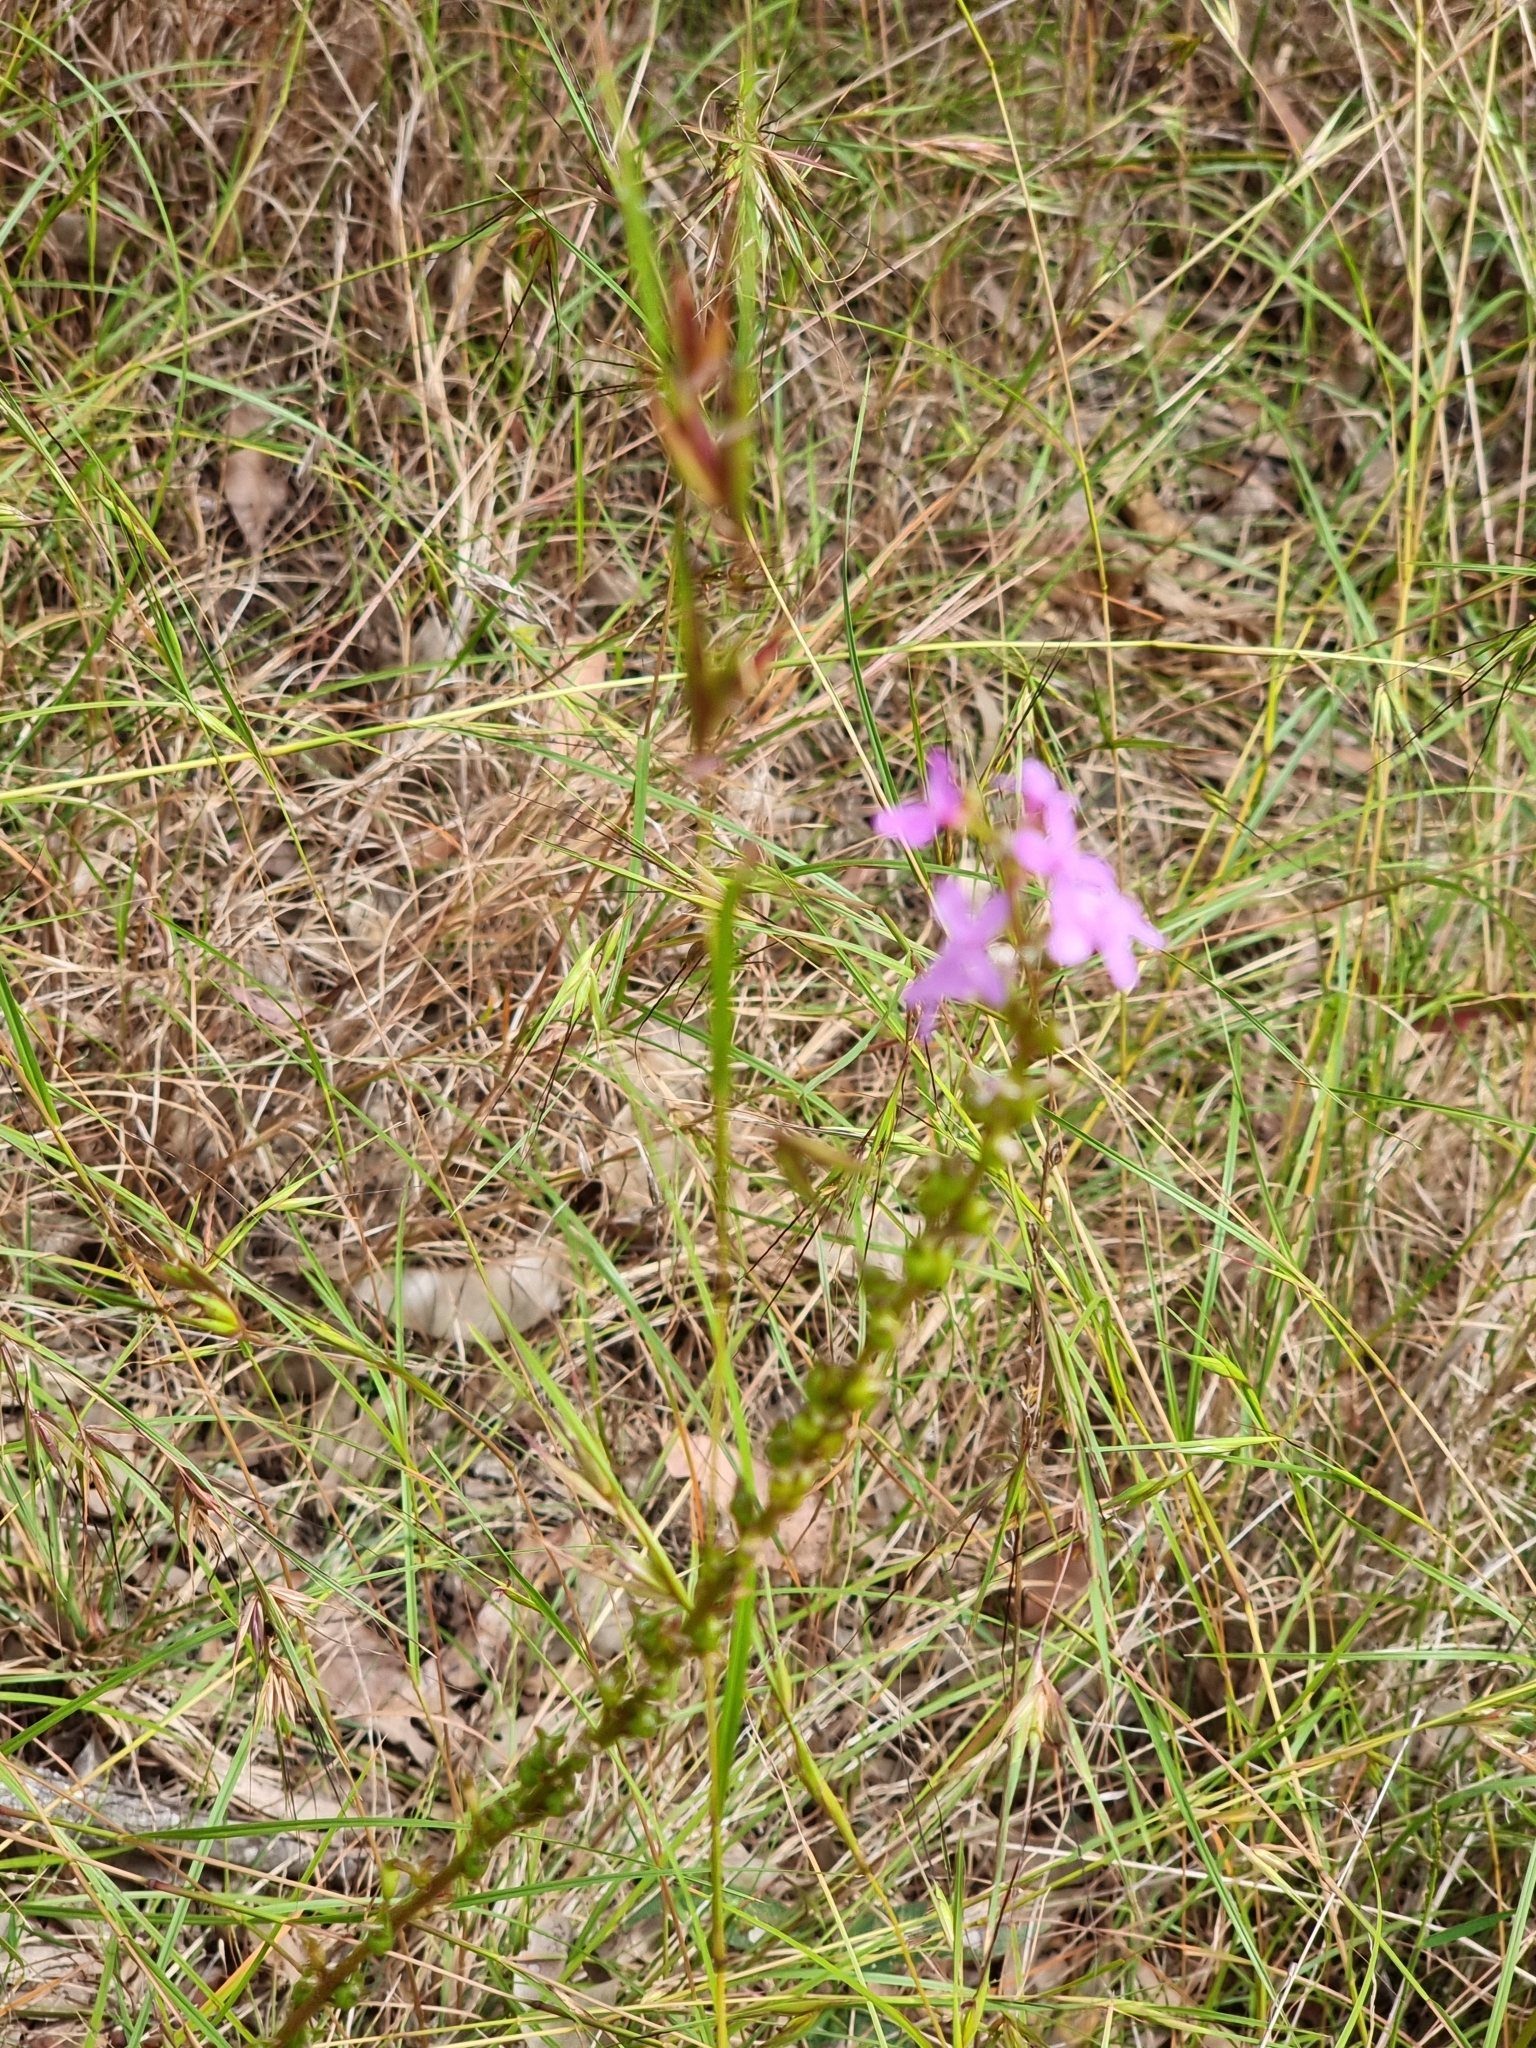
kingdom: Plantae
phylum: Tracheophyta
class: Magnoliopsida
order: Asterales
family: Stylidiaceae
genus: Stylidium
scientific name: Stylidium graminifolium
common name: Grass triggerplant
